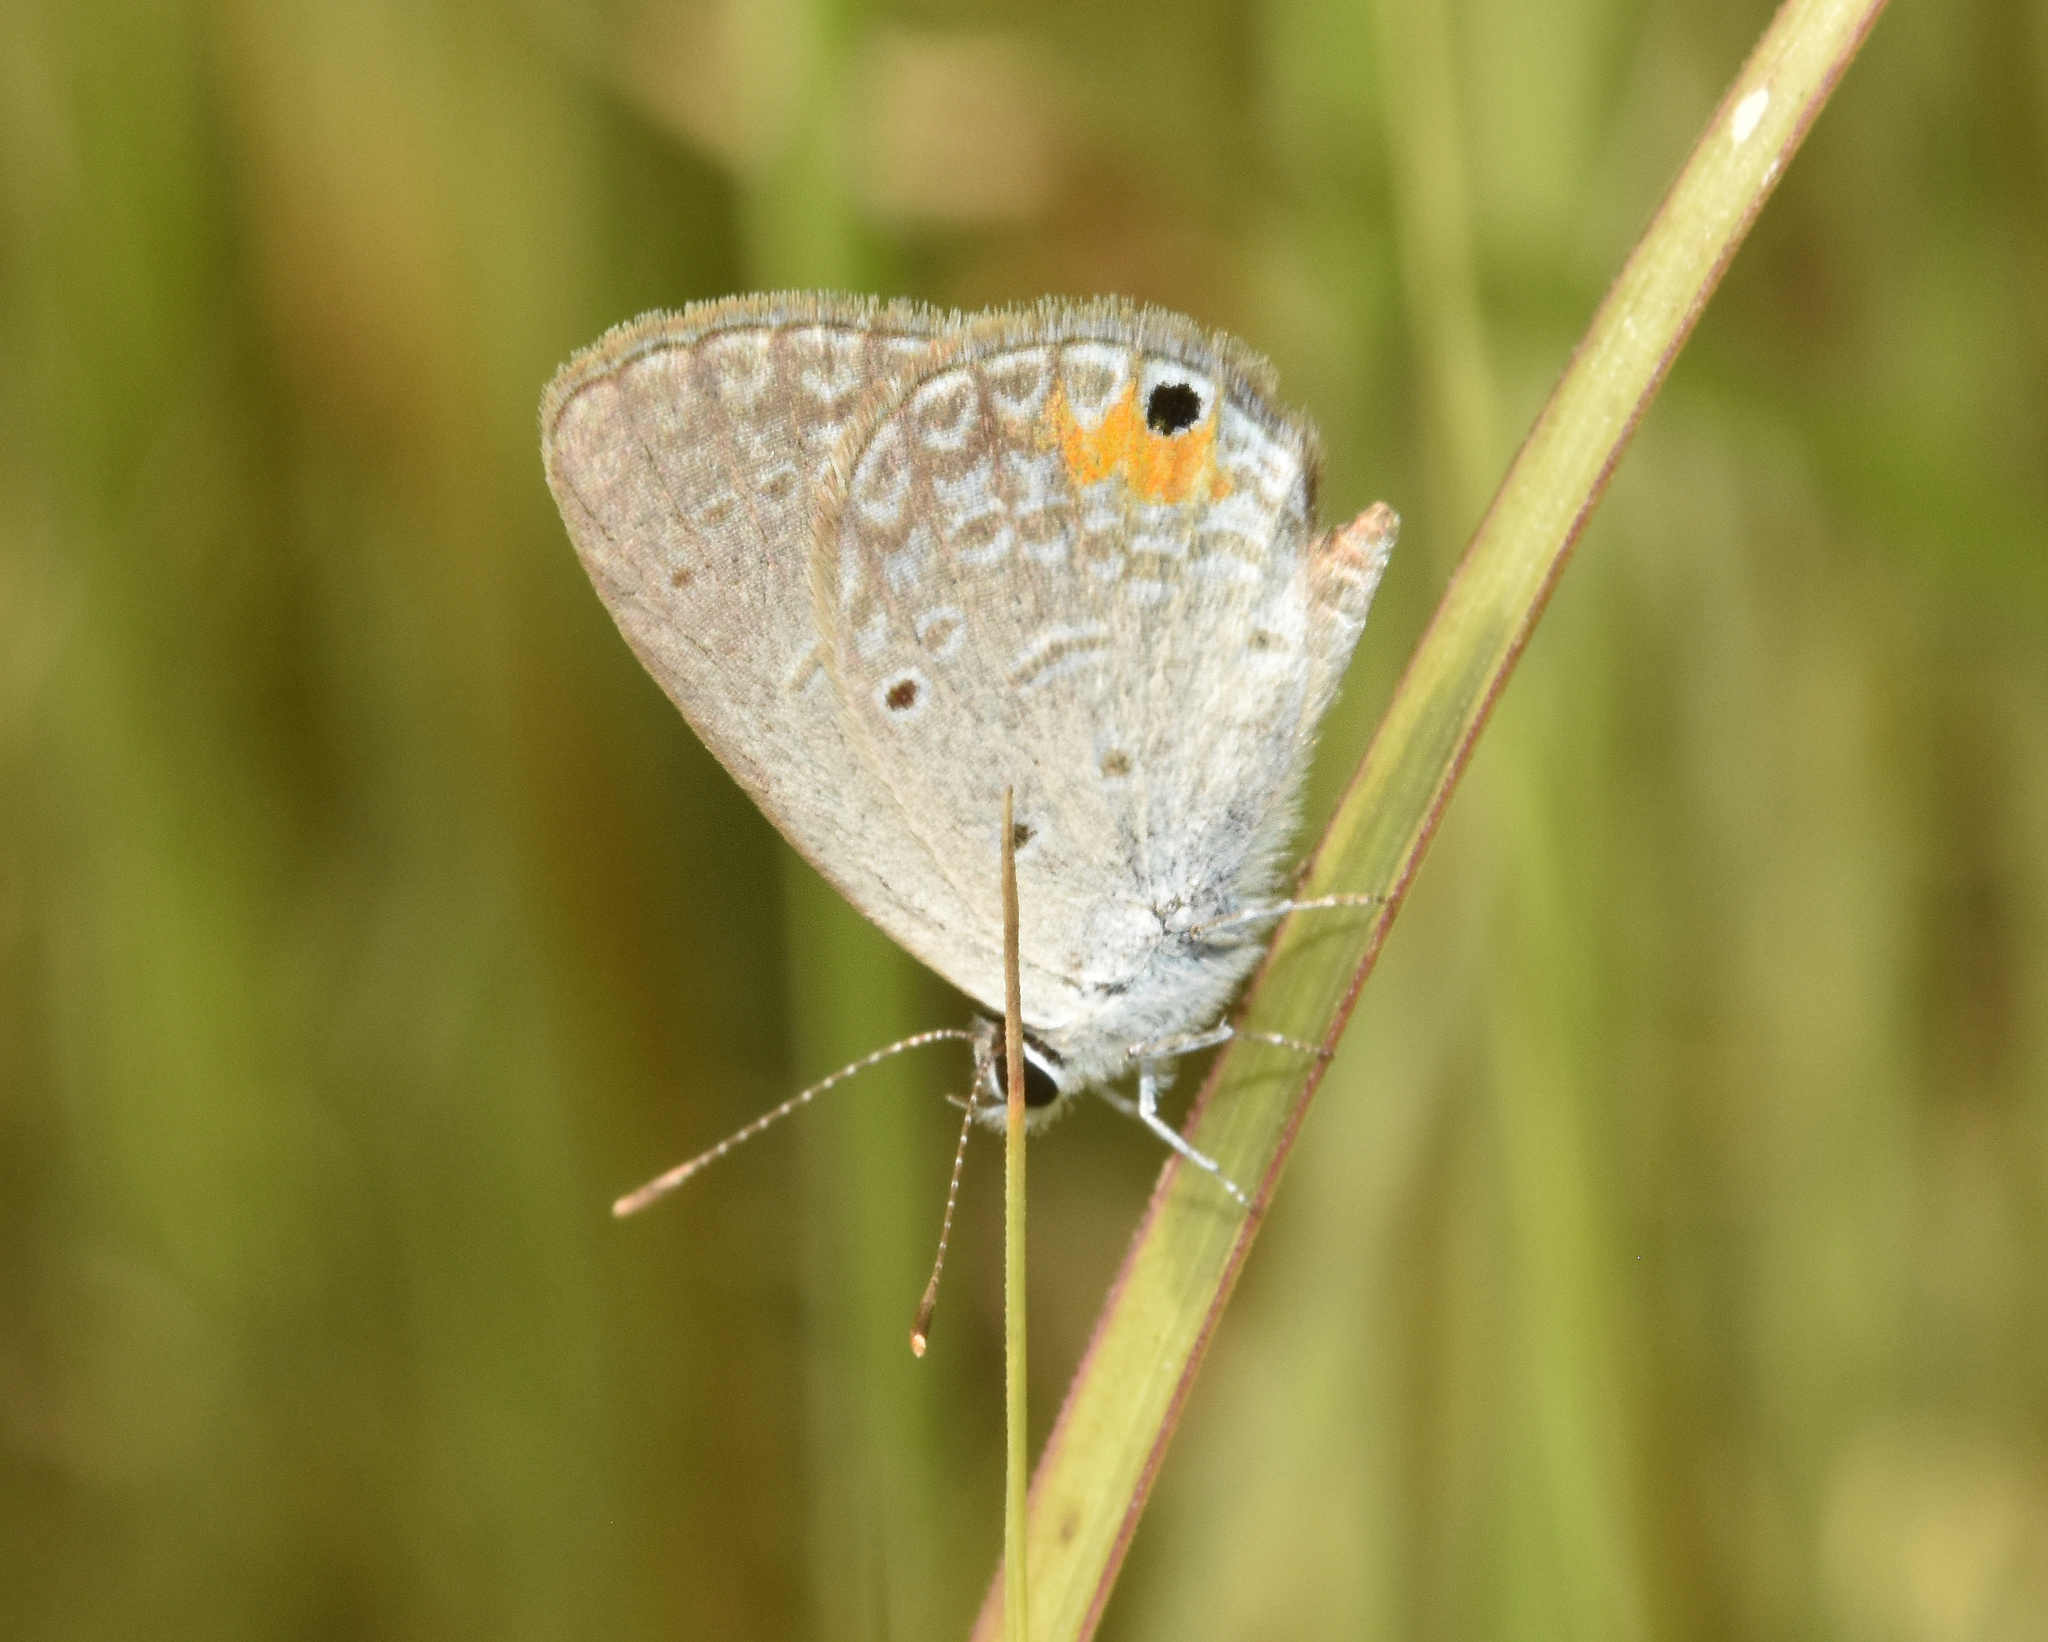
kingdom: Animalia
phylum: Arthropoda
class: Insecta
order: Lepidoptera
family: Lycaenidae
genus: Eicochrysops
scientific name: Eicochrysops messapus
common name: Cupreous blue
